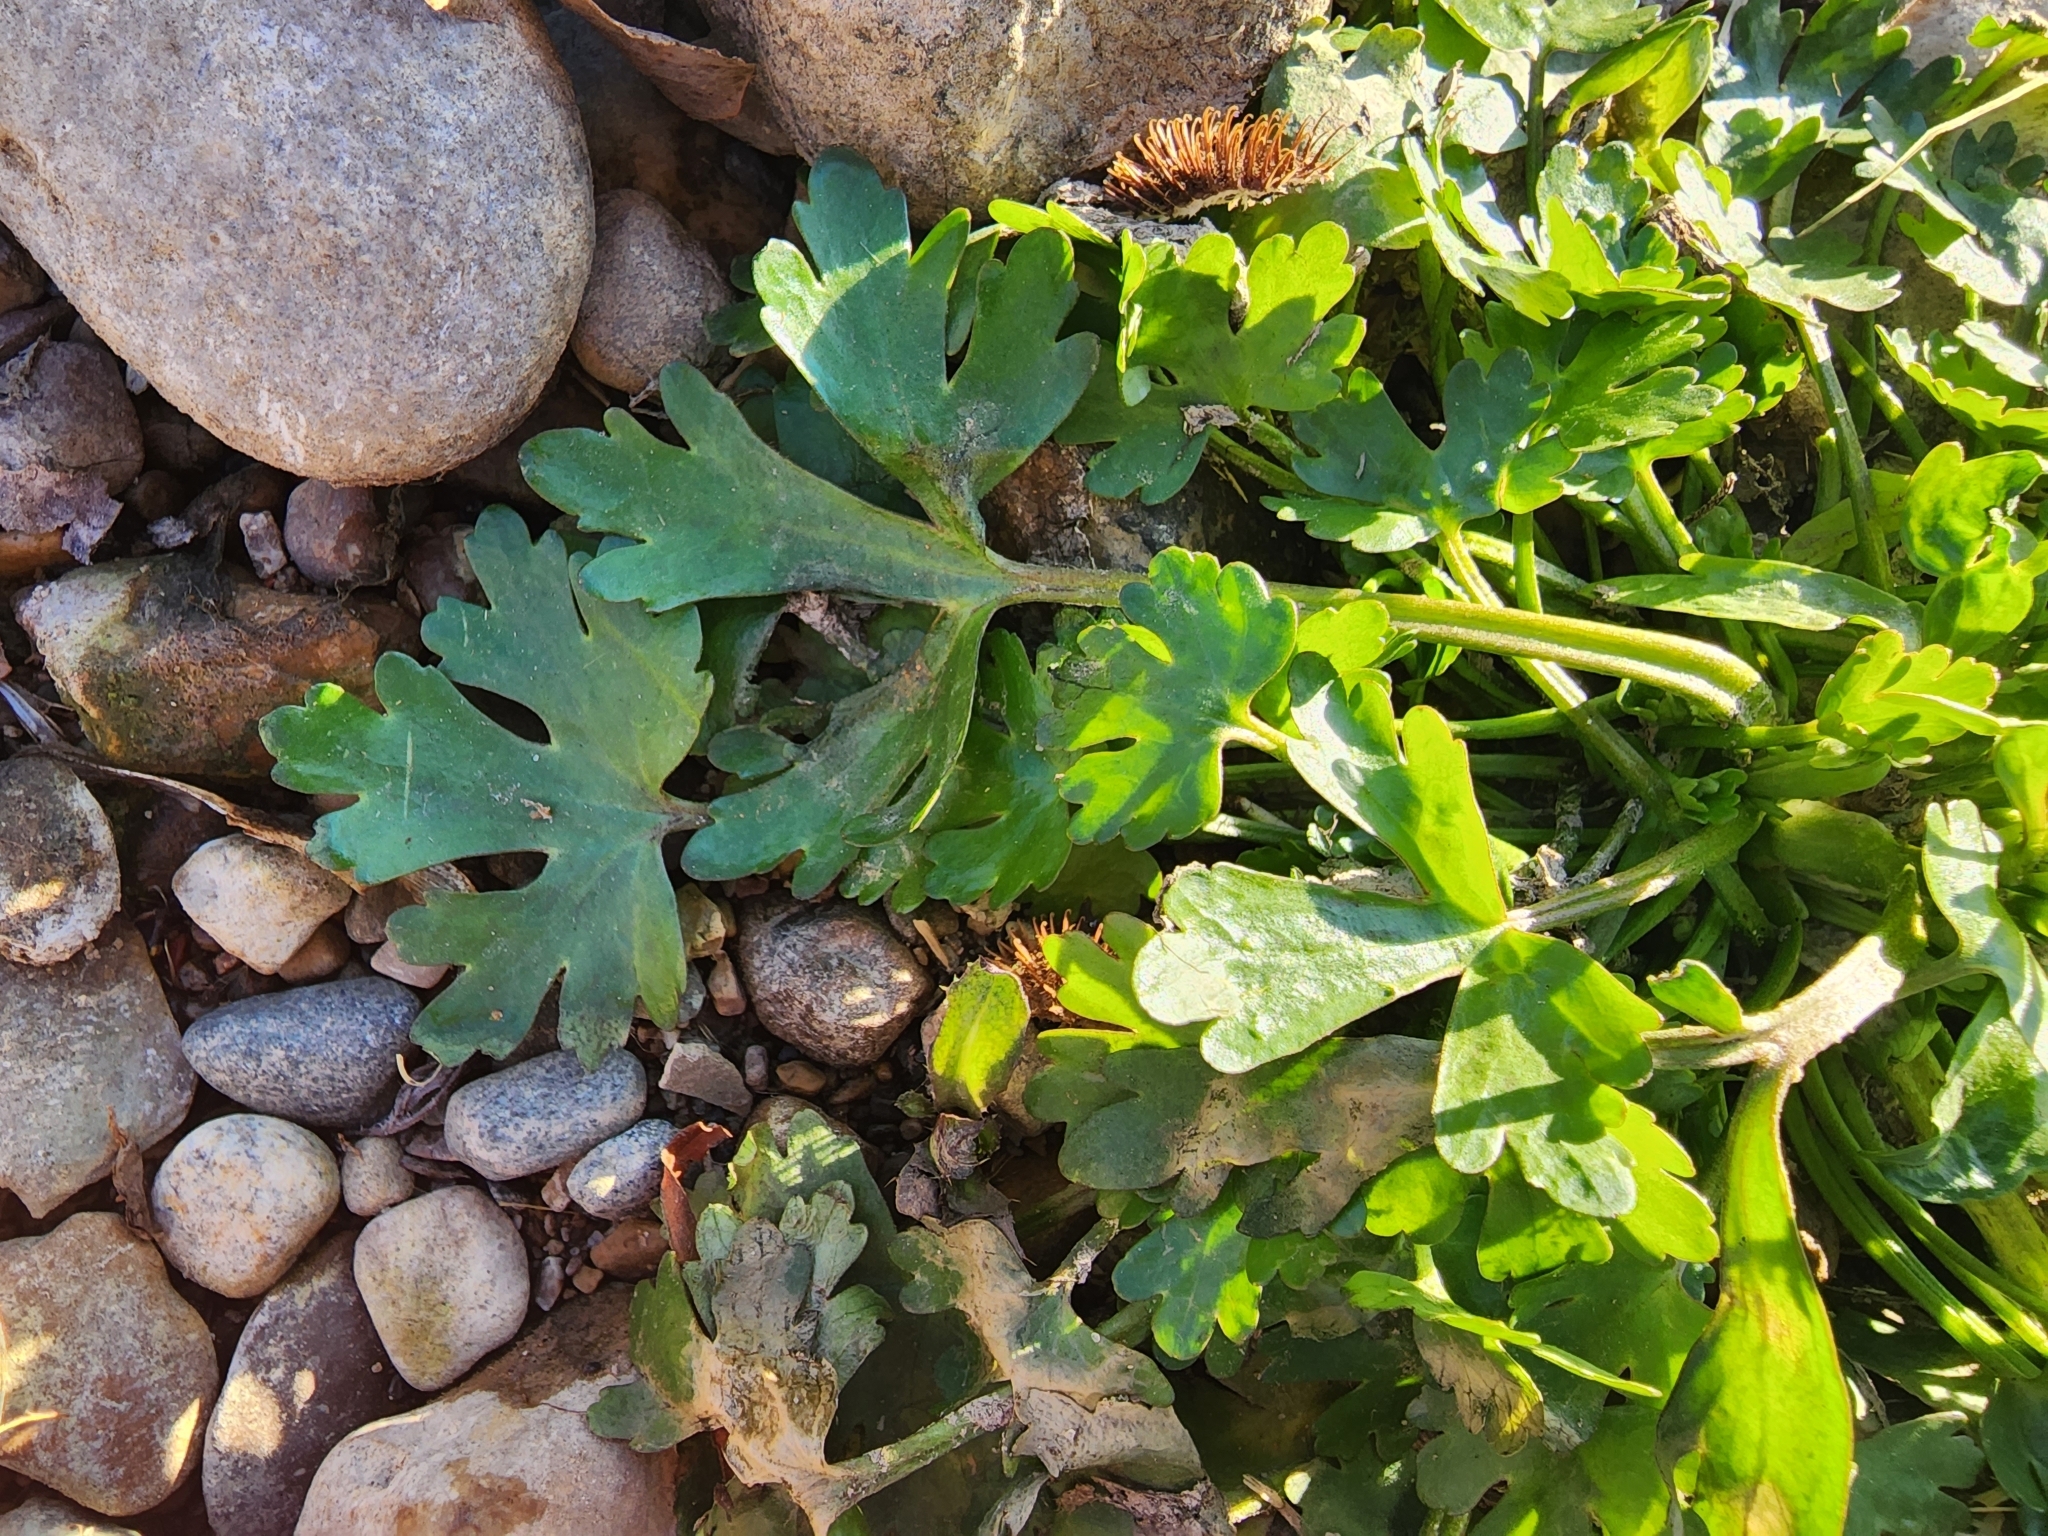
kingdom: Plantae
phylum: Tracheophyta
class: Magnoliopsida
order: Ranunculales
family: Ranunculaceae
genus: Ranunculus
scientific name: Ranunculus sceleratus
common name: Celery-leaved buttercup
